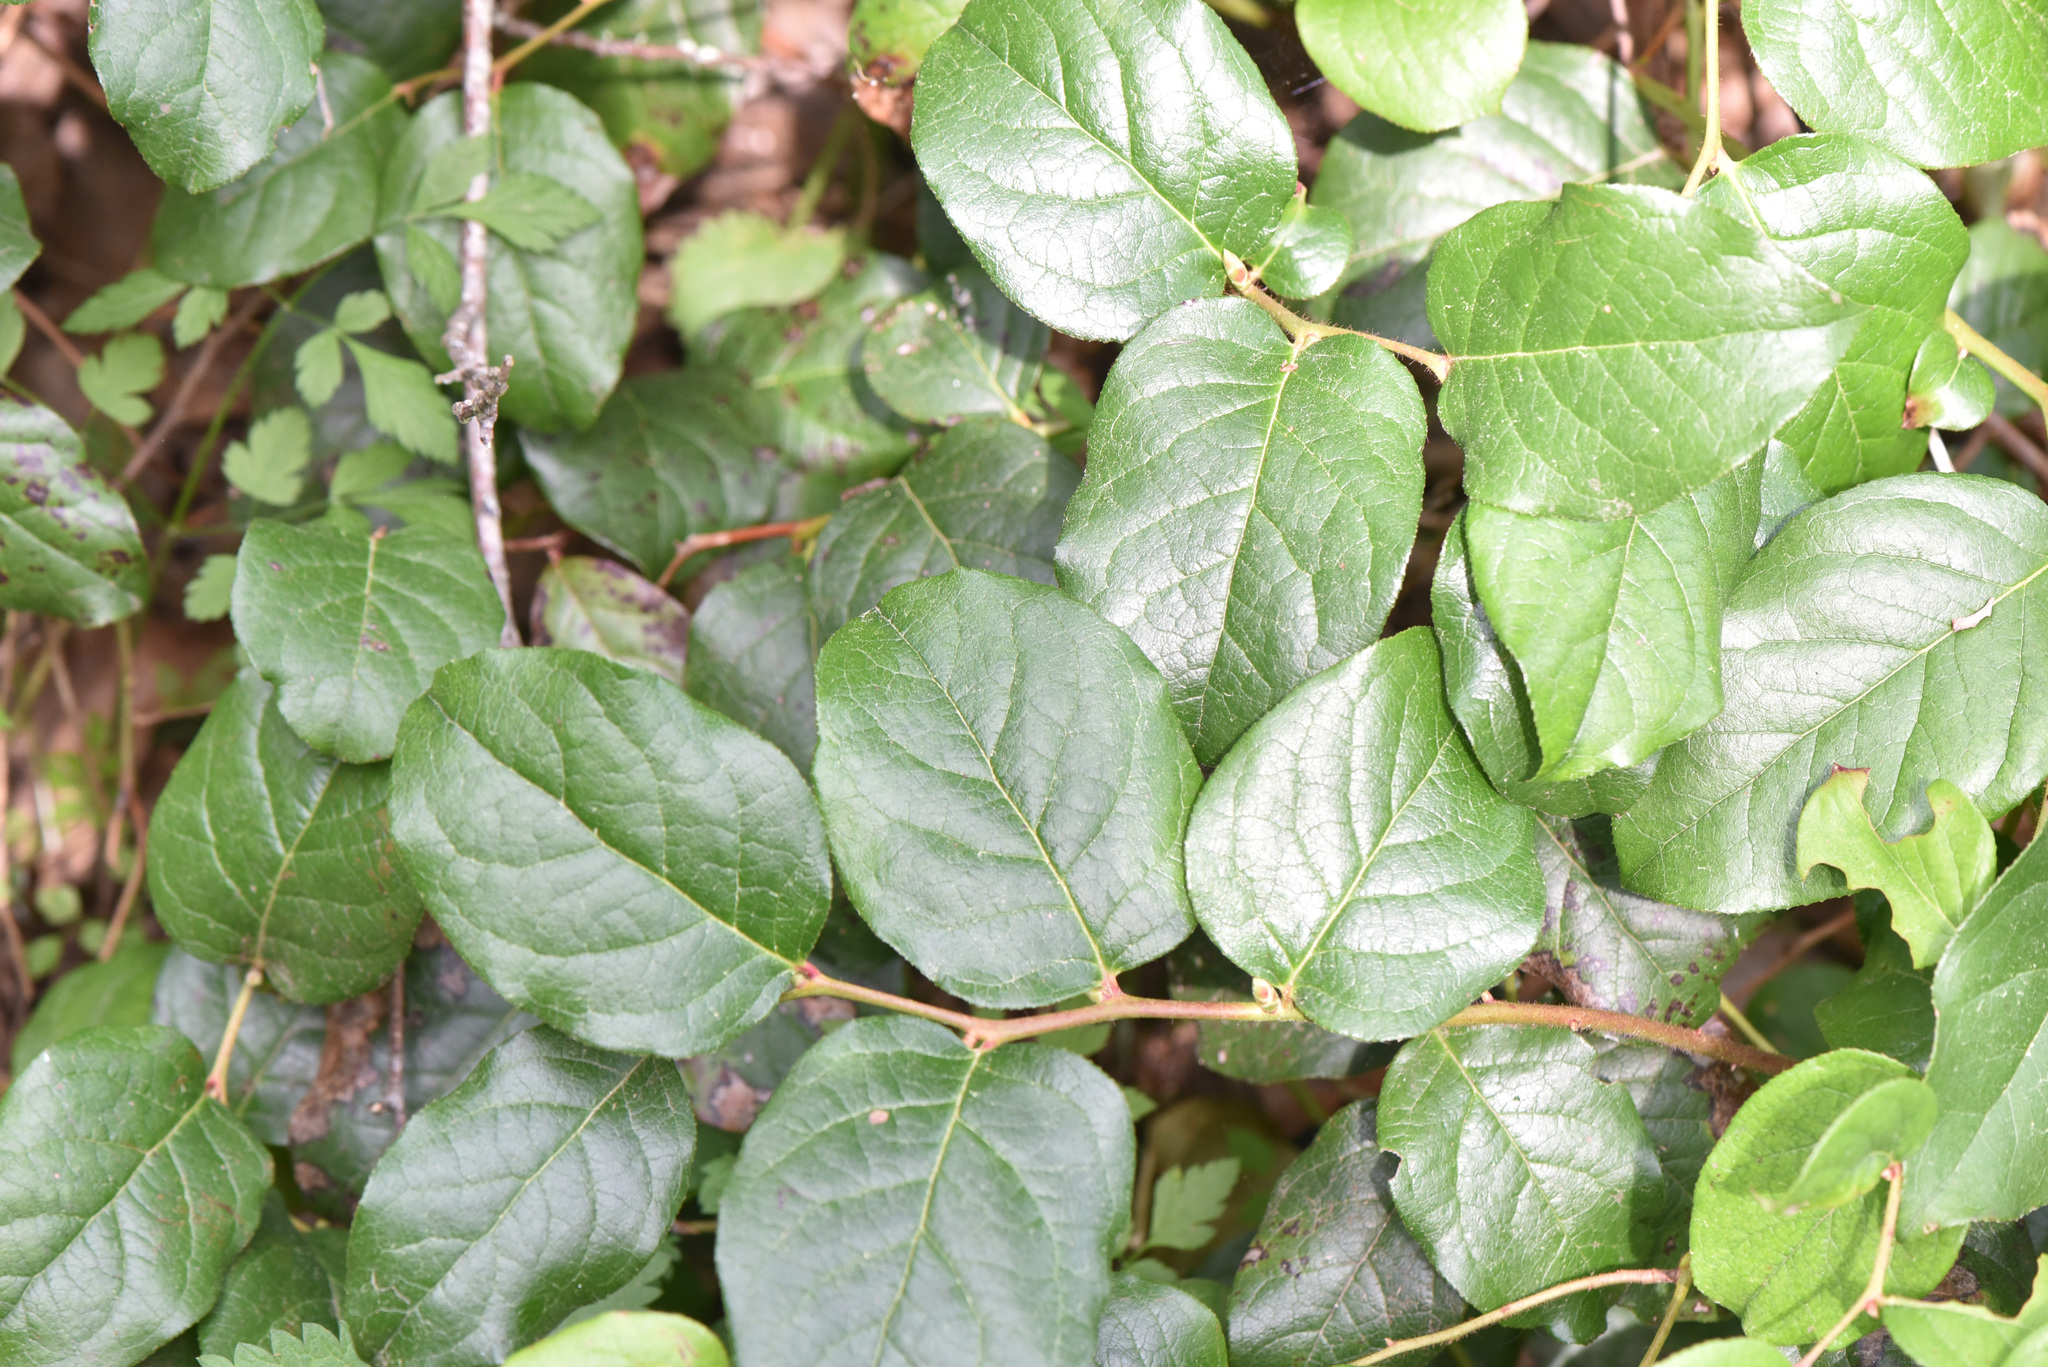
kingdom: Plantae
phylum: Tracheophyta
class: Magnoliopsida
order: Ericales
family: Ericaceae
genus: Gaultheria
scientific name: Gaultheria shallon
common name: Shallon
